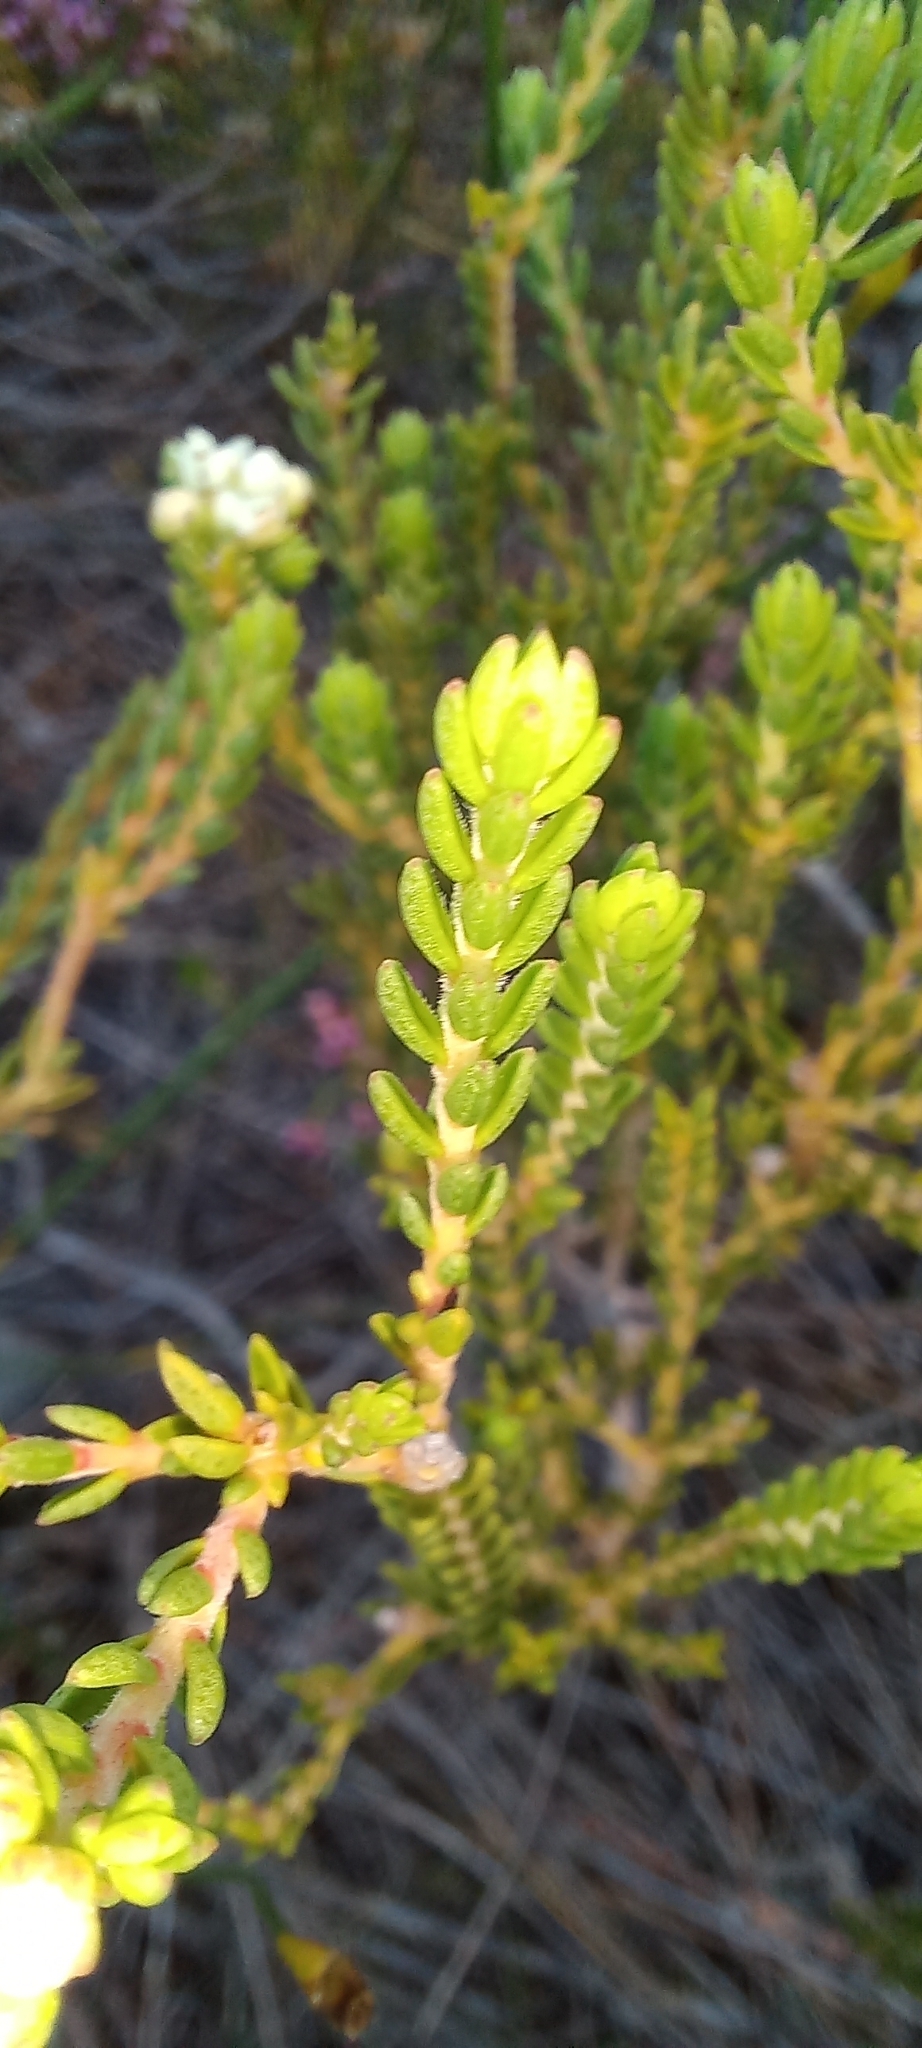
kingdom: Plantae
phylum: Tracheophyta
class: Magnoliopsida
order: Sapindales
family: Rutaceae
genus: Diosma
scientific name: Diosma oppositifolia
